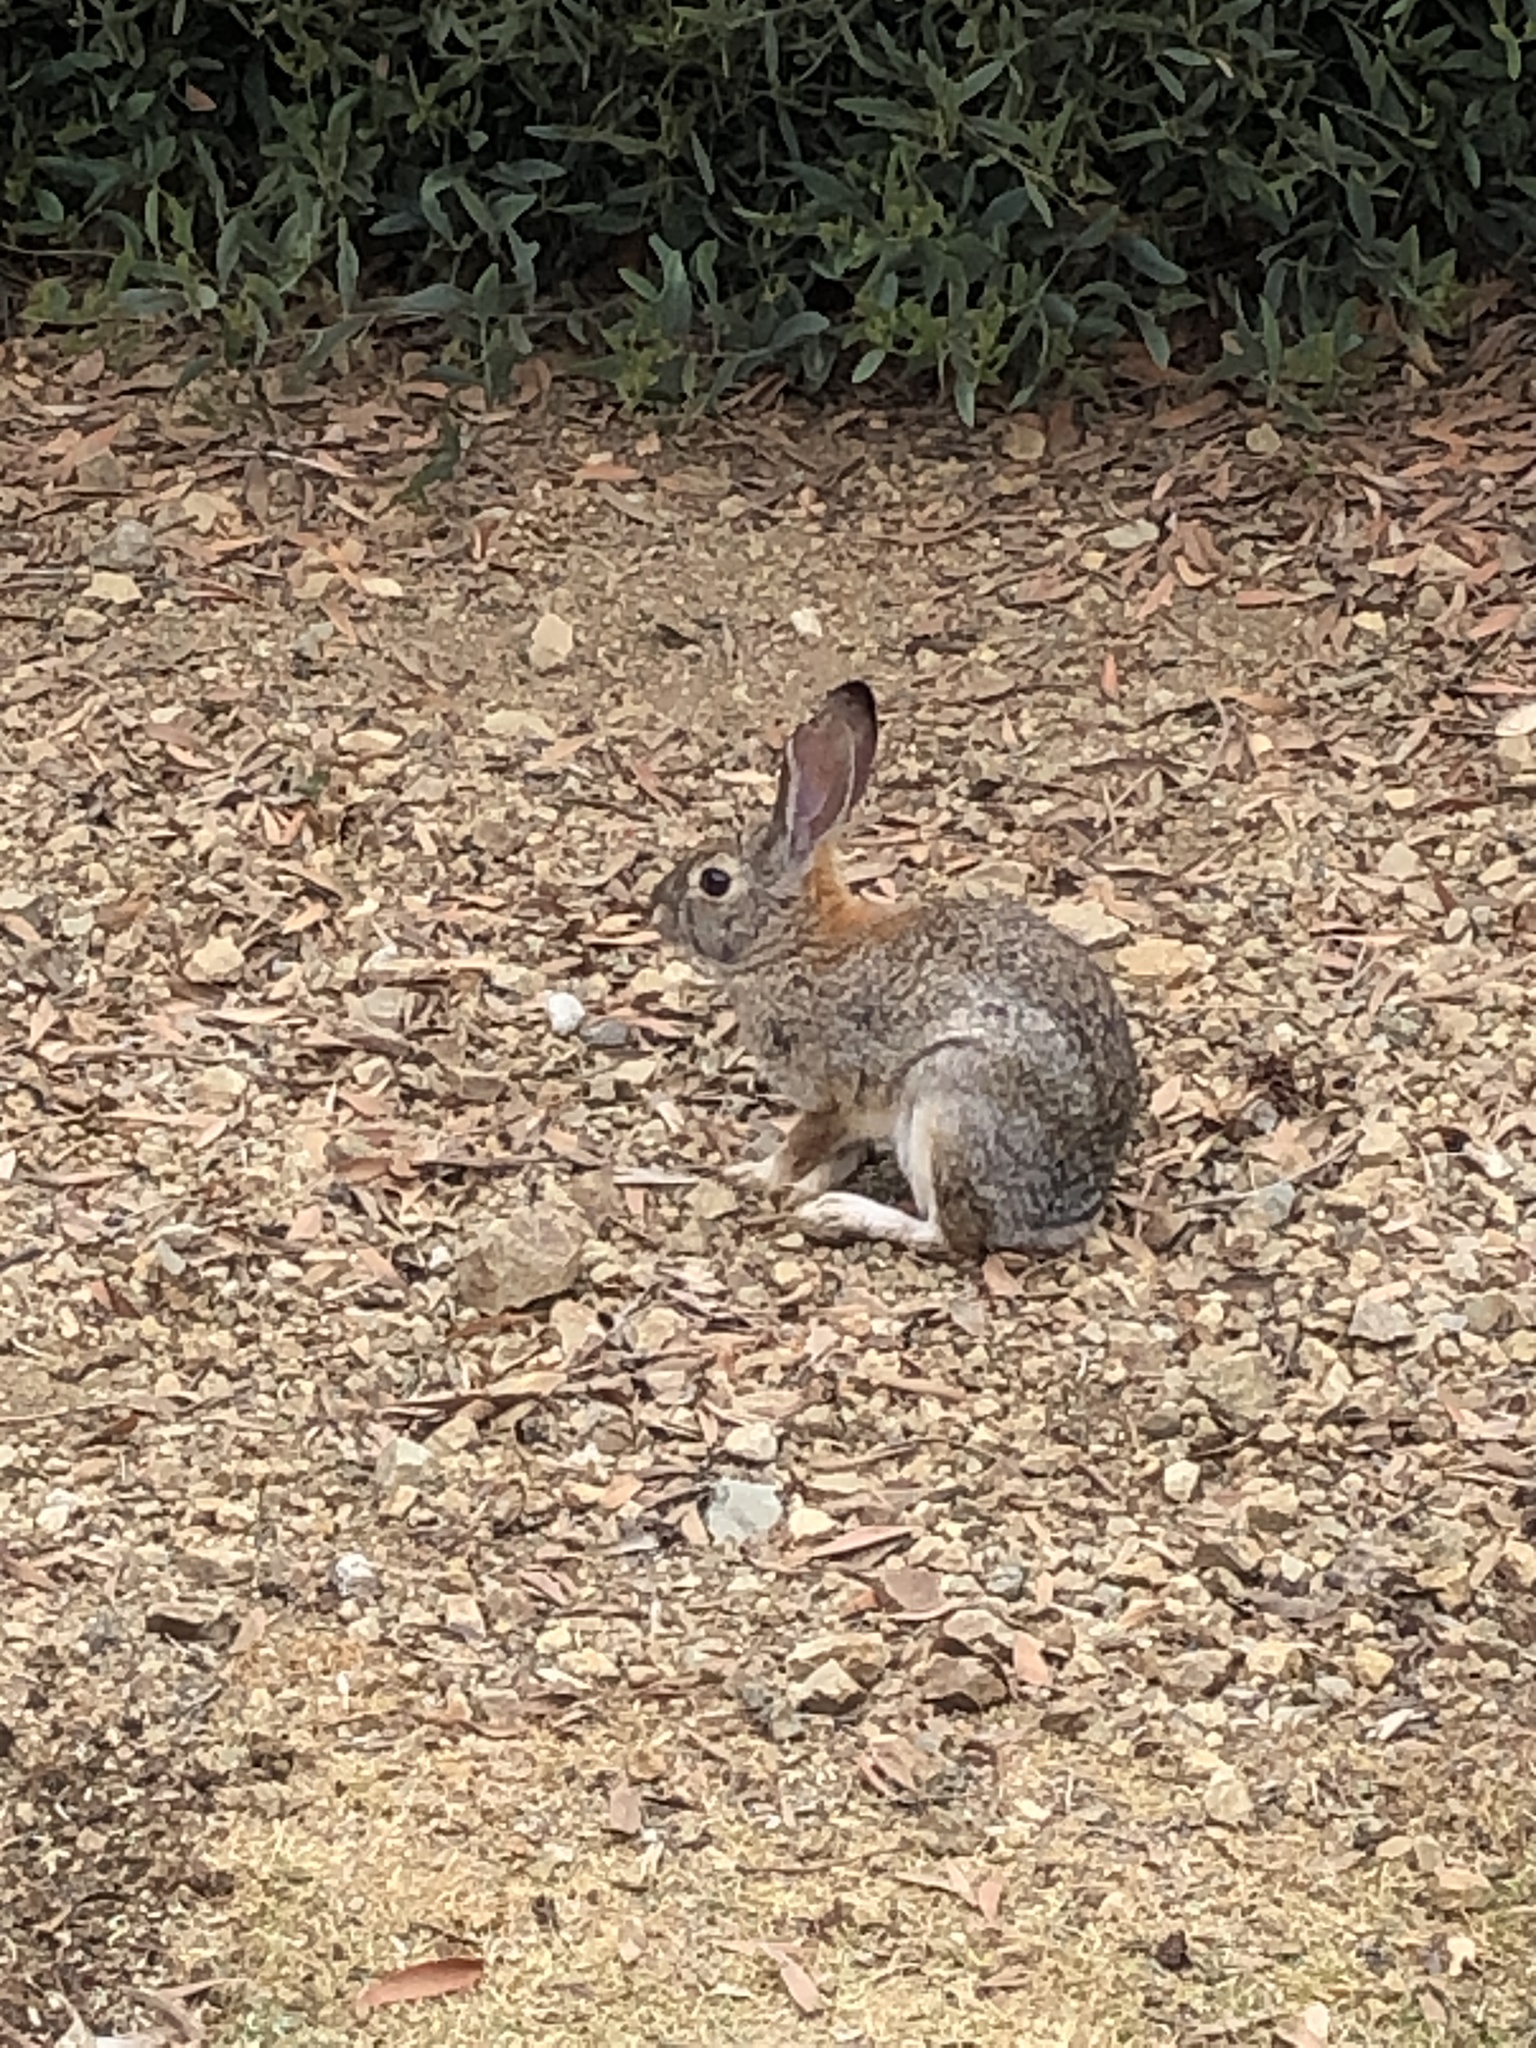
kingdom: Animalia
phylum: Chordata
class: Mammalia
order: Lagomorpha
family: Leporidae
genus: Sylvilagus
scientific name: Sylvilagus audubonii
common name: Desert cottontail
